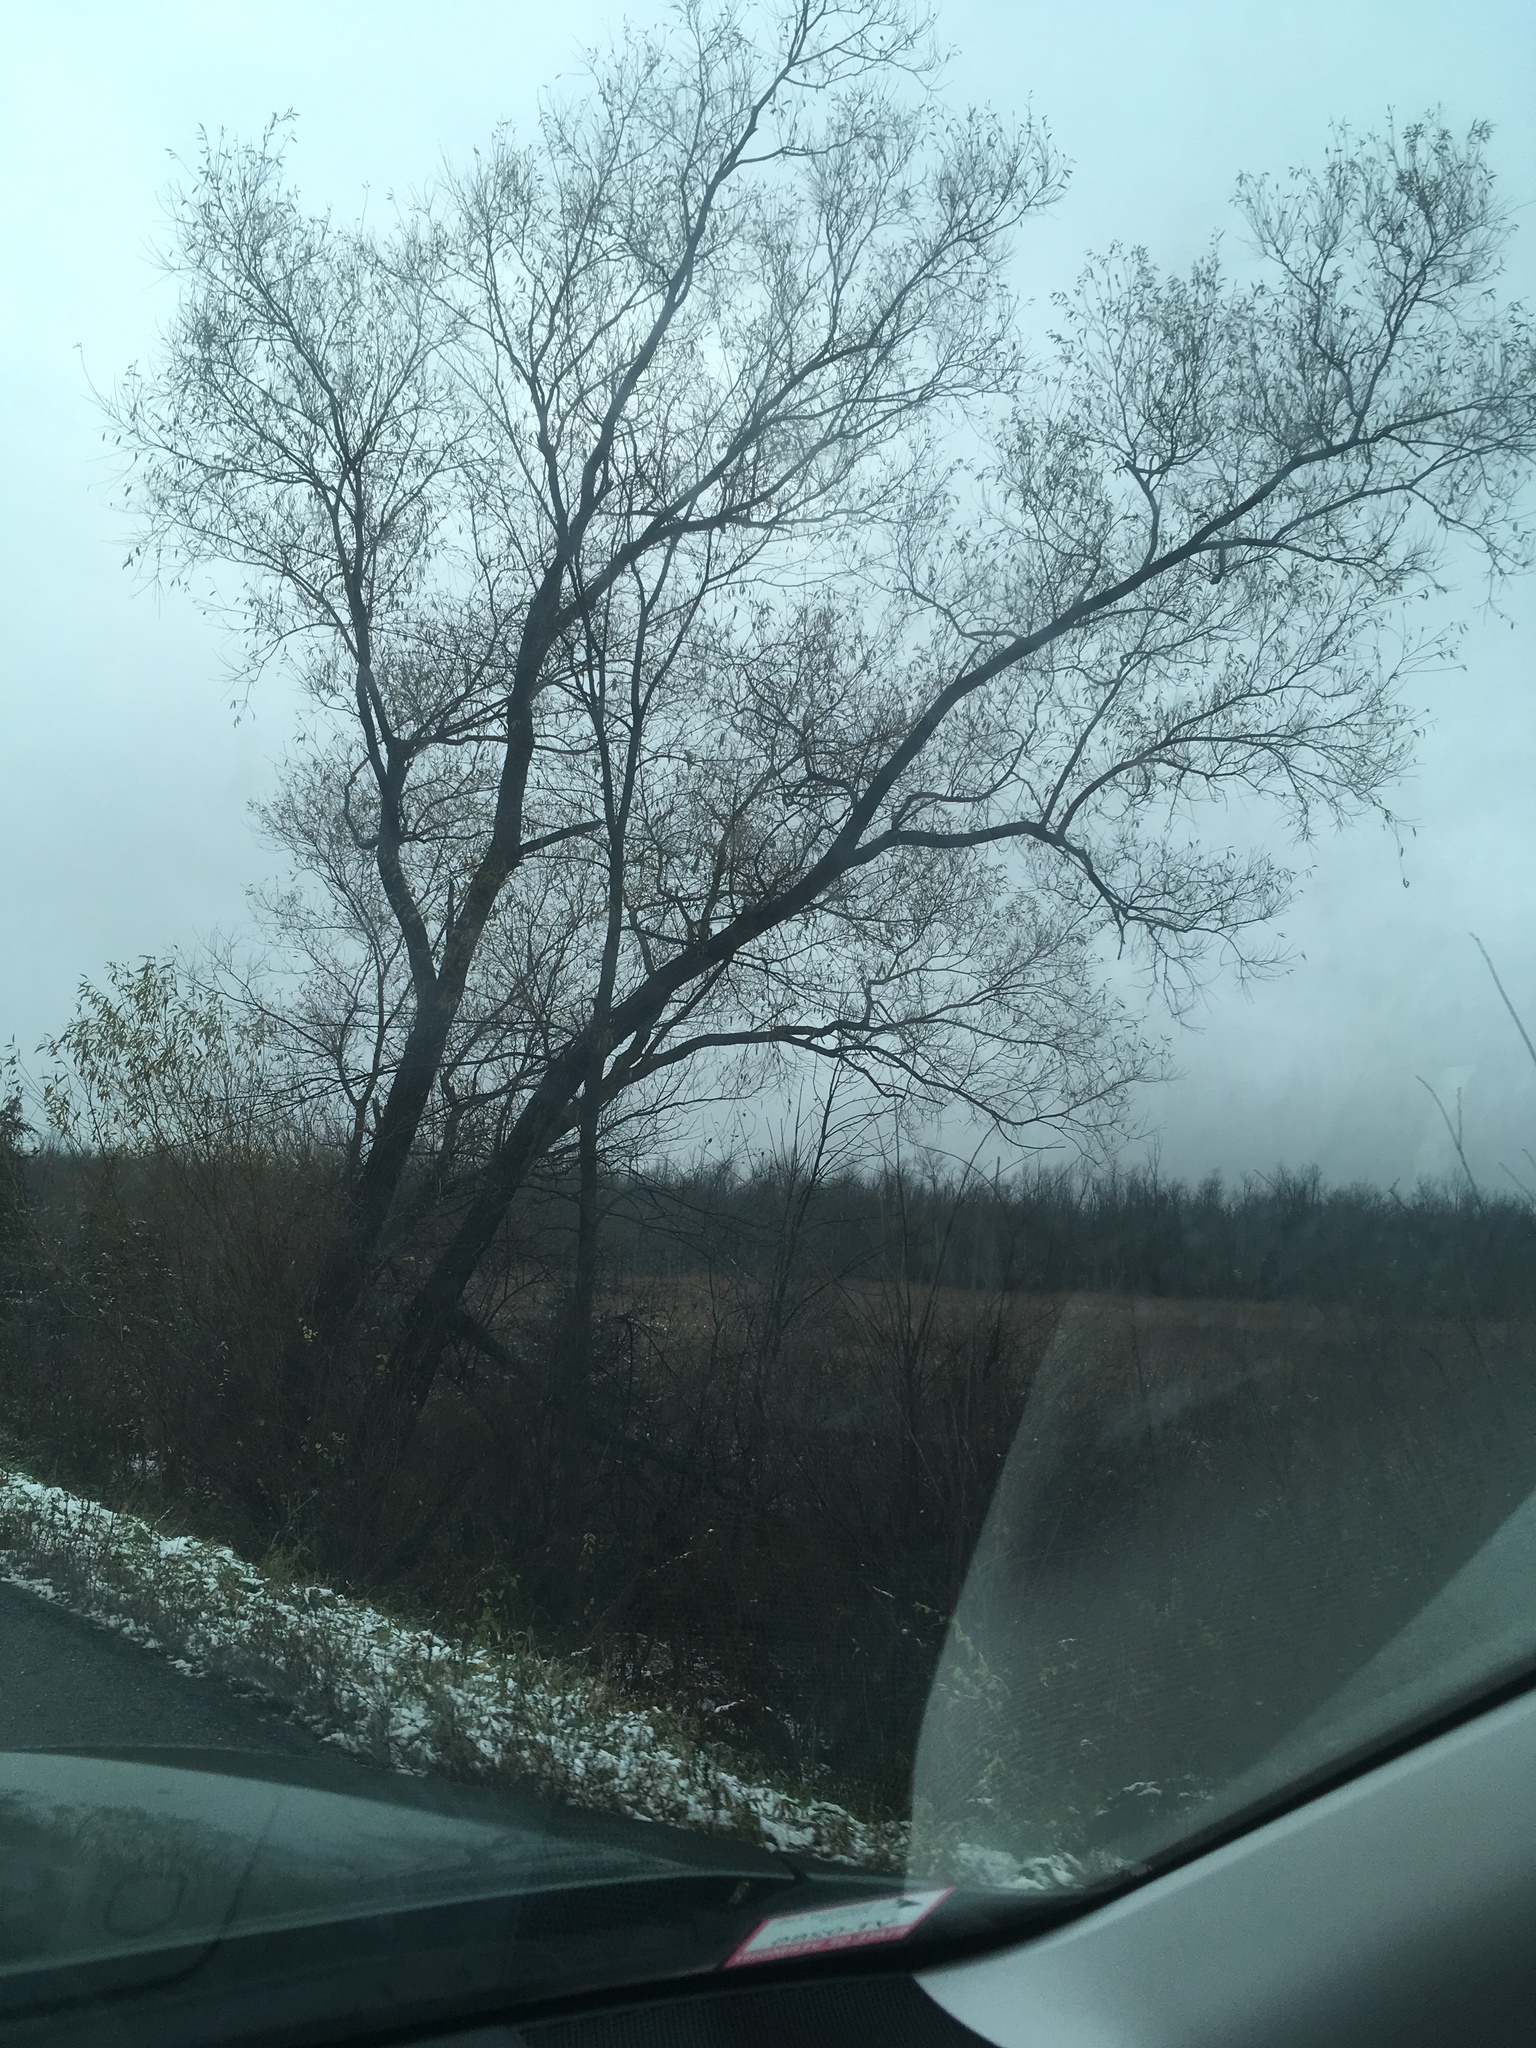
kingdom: Plantae
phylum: Tracheophyta
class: Magnoliopsida
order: Malpighiales
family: Salicaceae
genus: Salix
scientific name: Salix nigra
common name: Black willow
